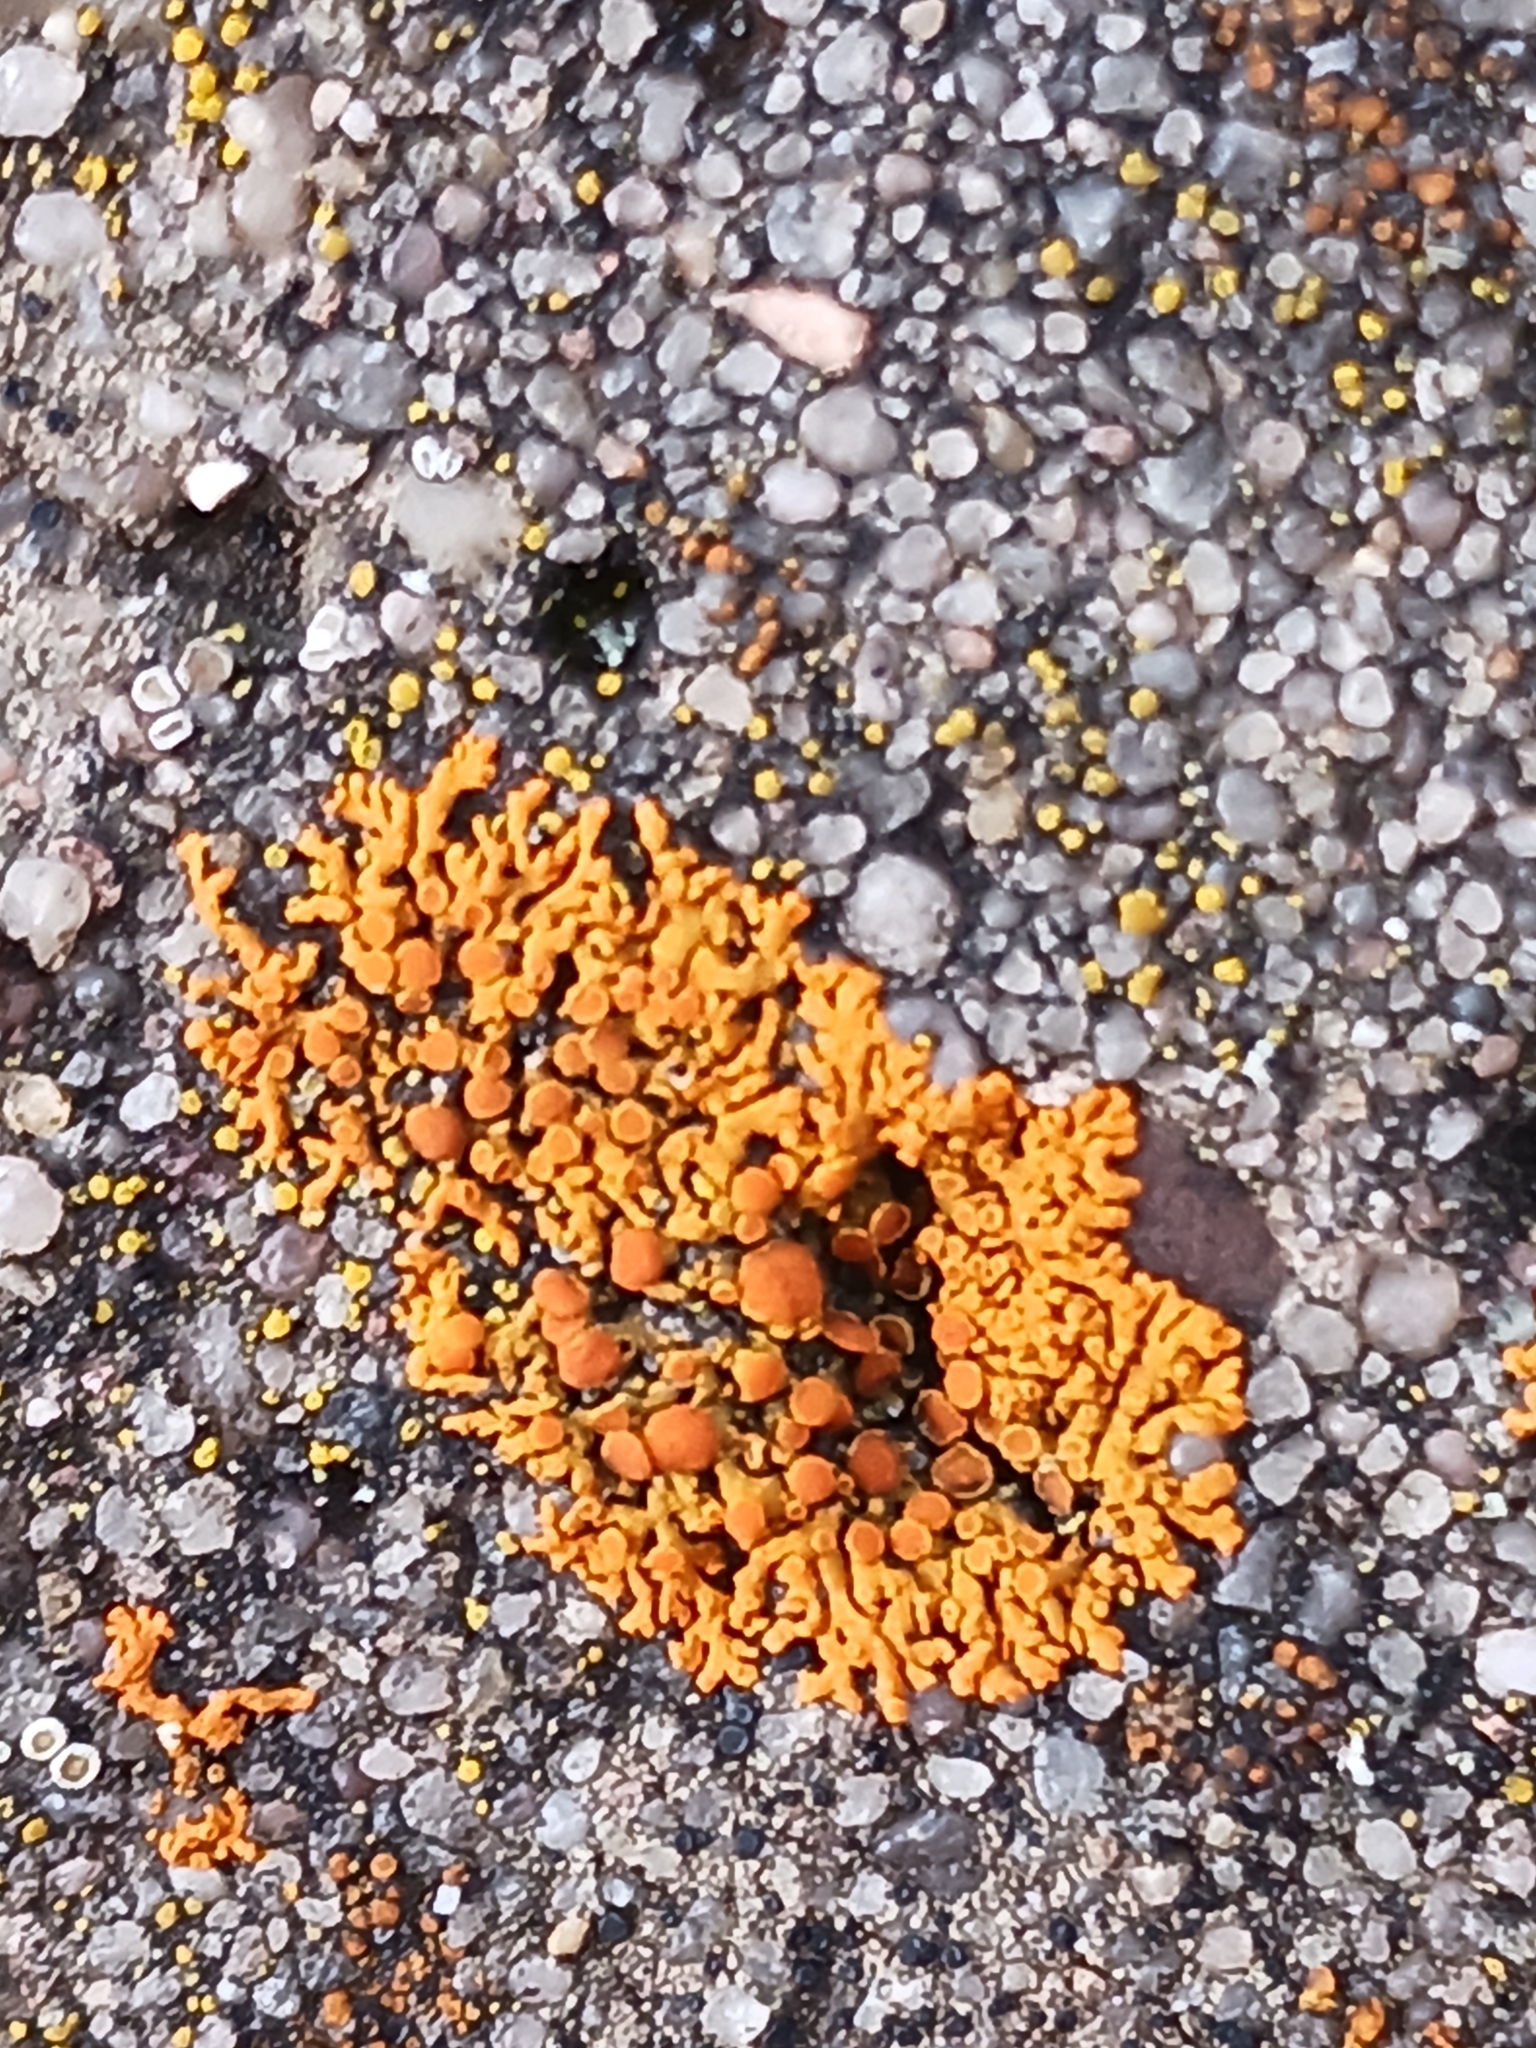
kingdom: Fungi
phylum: Ascomycota
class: Lecanoromycetes
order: Teloschistales
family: Teloschistaceae
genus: Xanthoria
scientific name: Xanthoria elegans
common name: Elegant sunburst lichen
